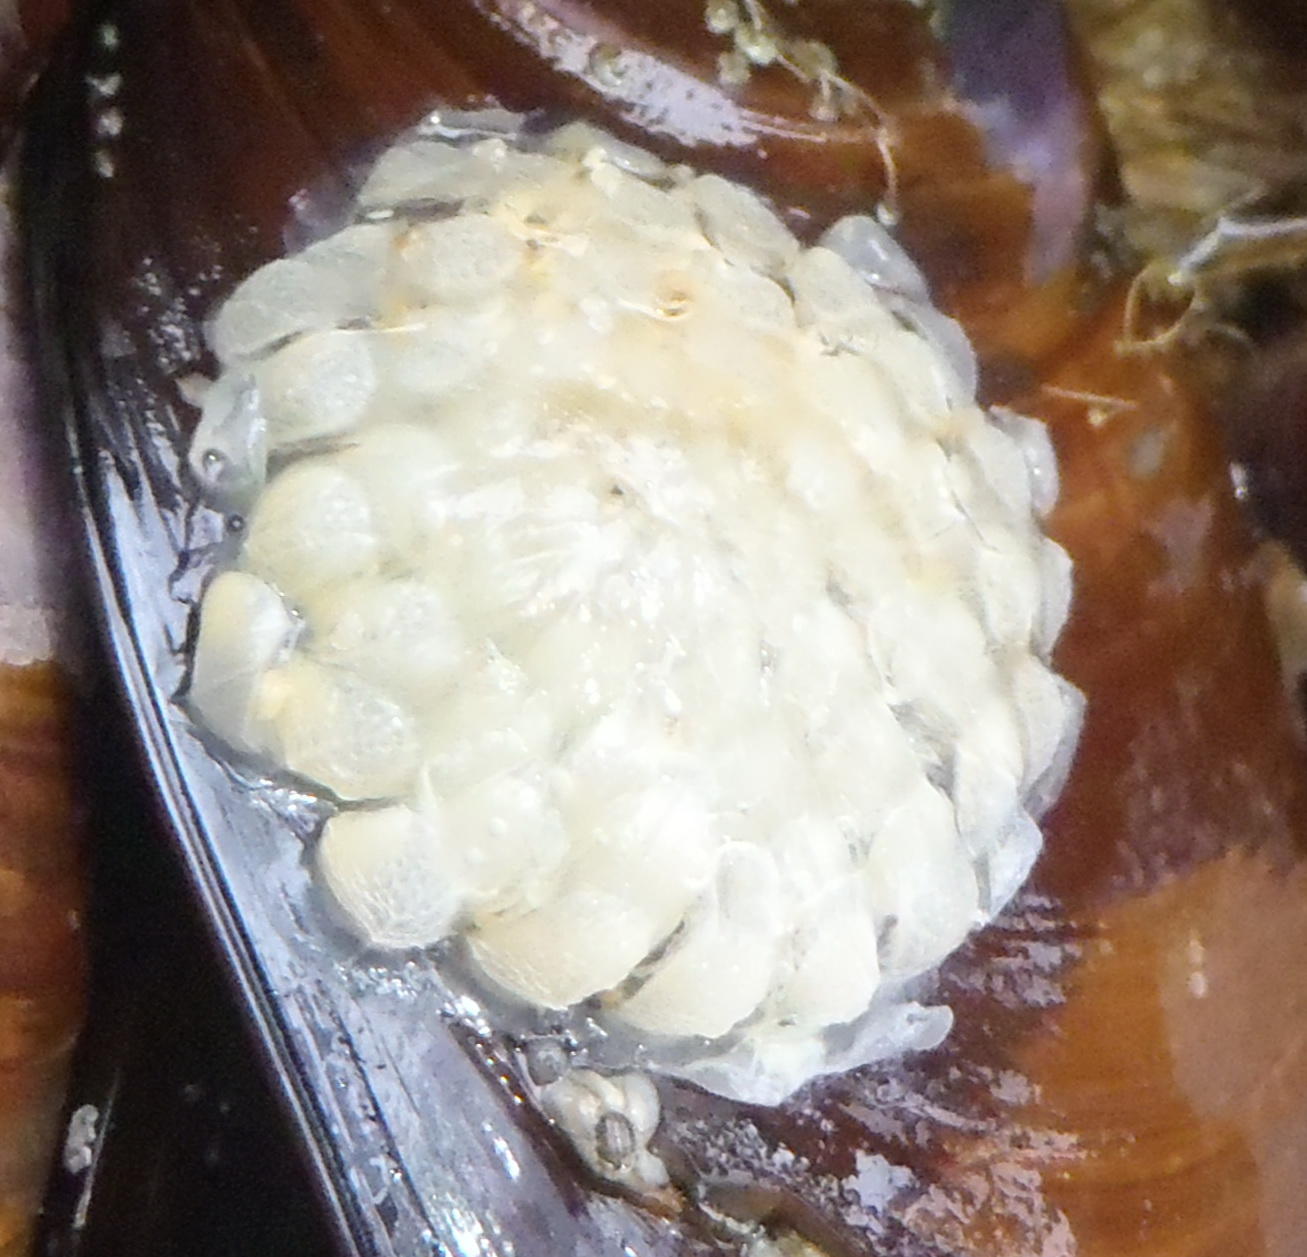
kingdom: Animalia
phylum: Mollusca
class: Gastropoda
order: Neogastropoda
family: Buccinidae
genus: Burnupena
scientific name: Burnupena lagenaria
